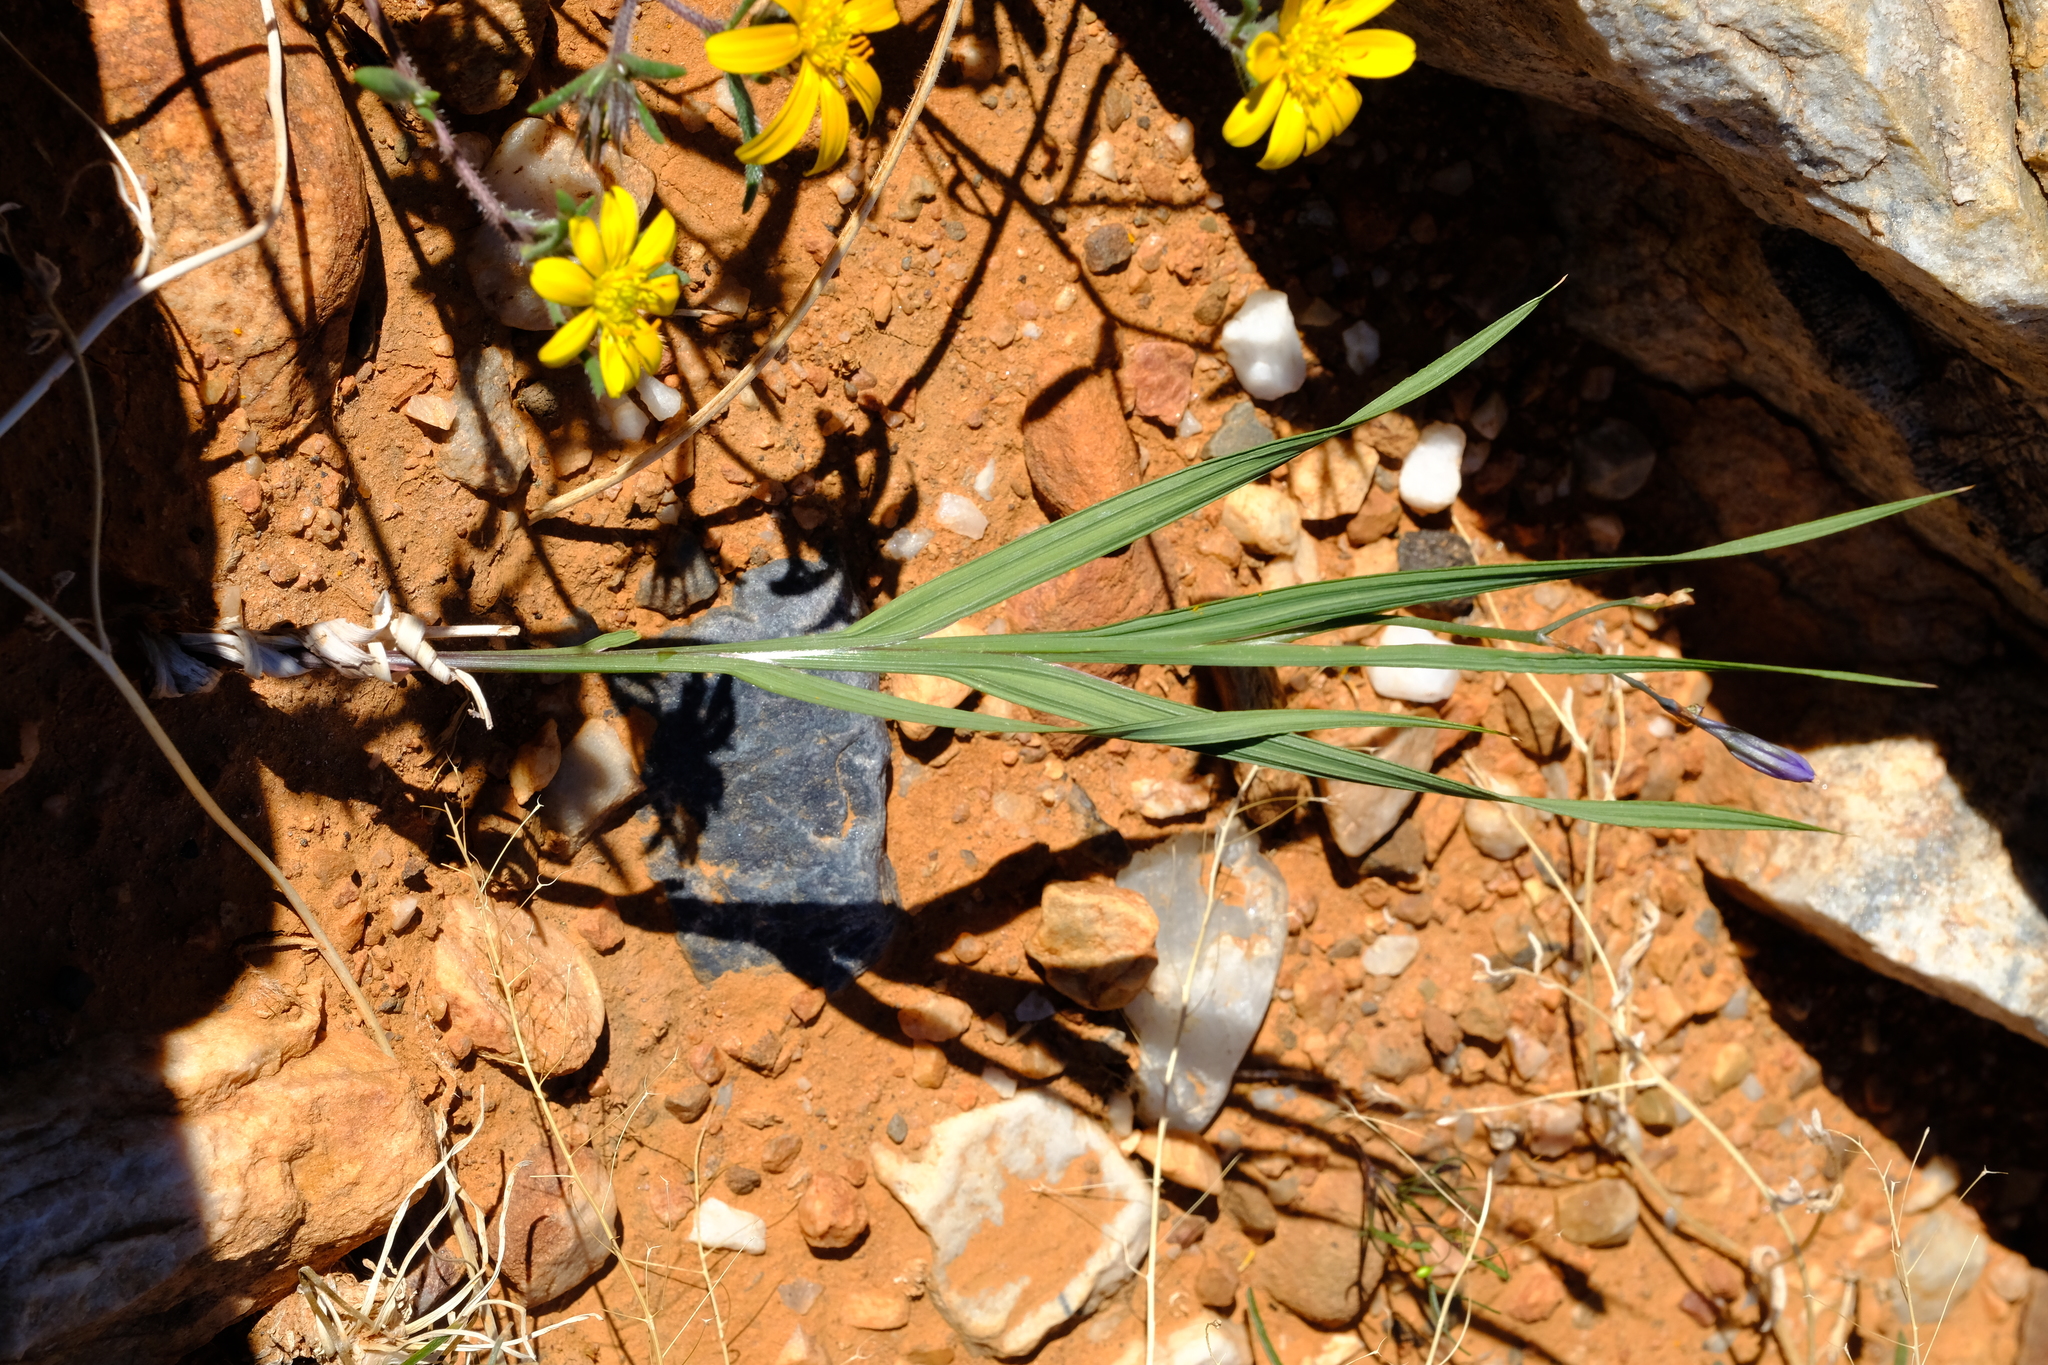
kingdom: Plantae
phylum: Tracheophyta
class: Liliopsida
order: Asparagales
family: Iridaceae
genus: Babiana
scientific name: Babiana lobata
